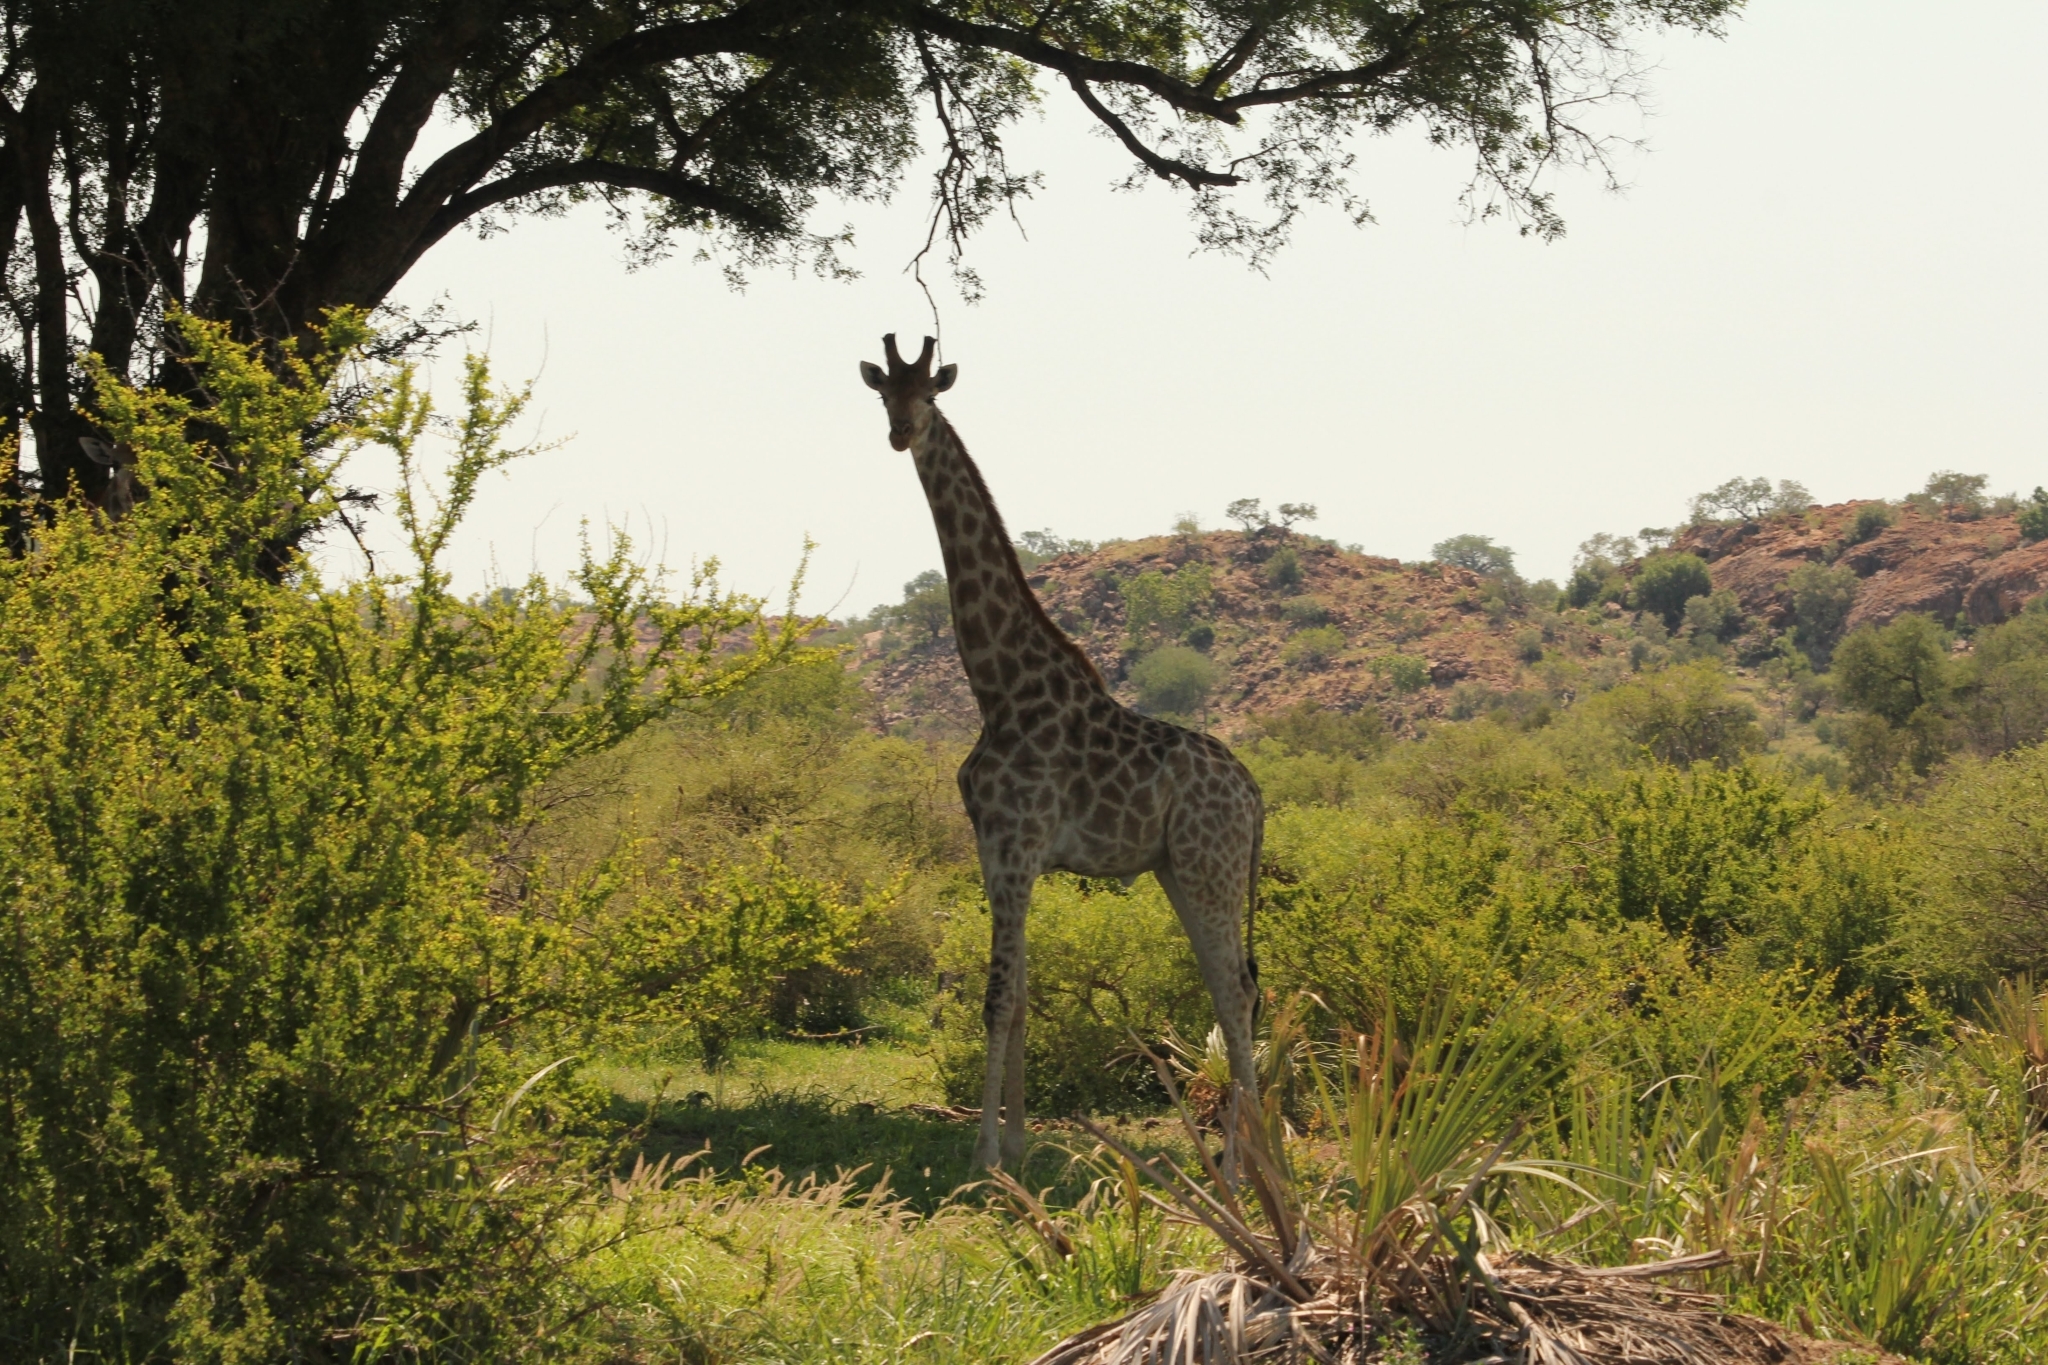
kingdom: Animalia
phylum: Chordata
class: Mammalia
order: Artiodactyla
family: Giraffidae
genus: Giraffa
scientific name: Giraffa giraffa
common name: Southern giraffe
